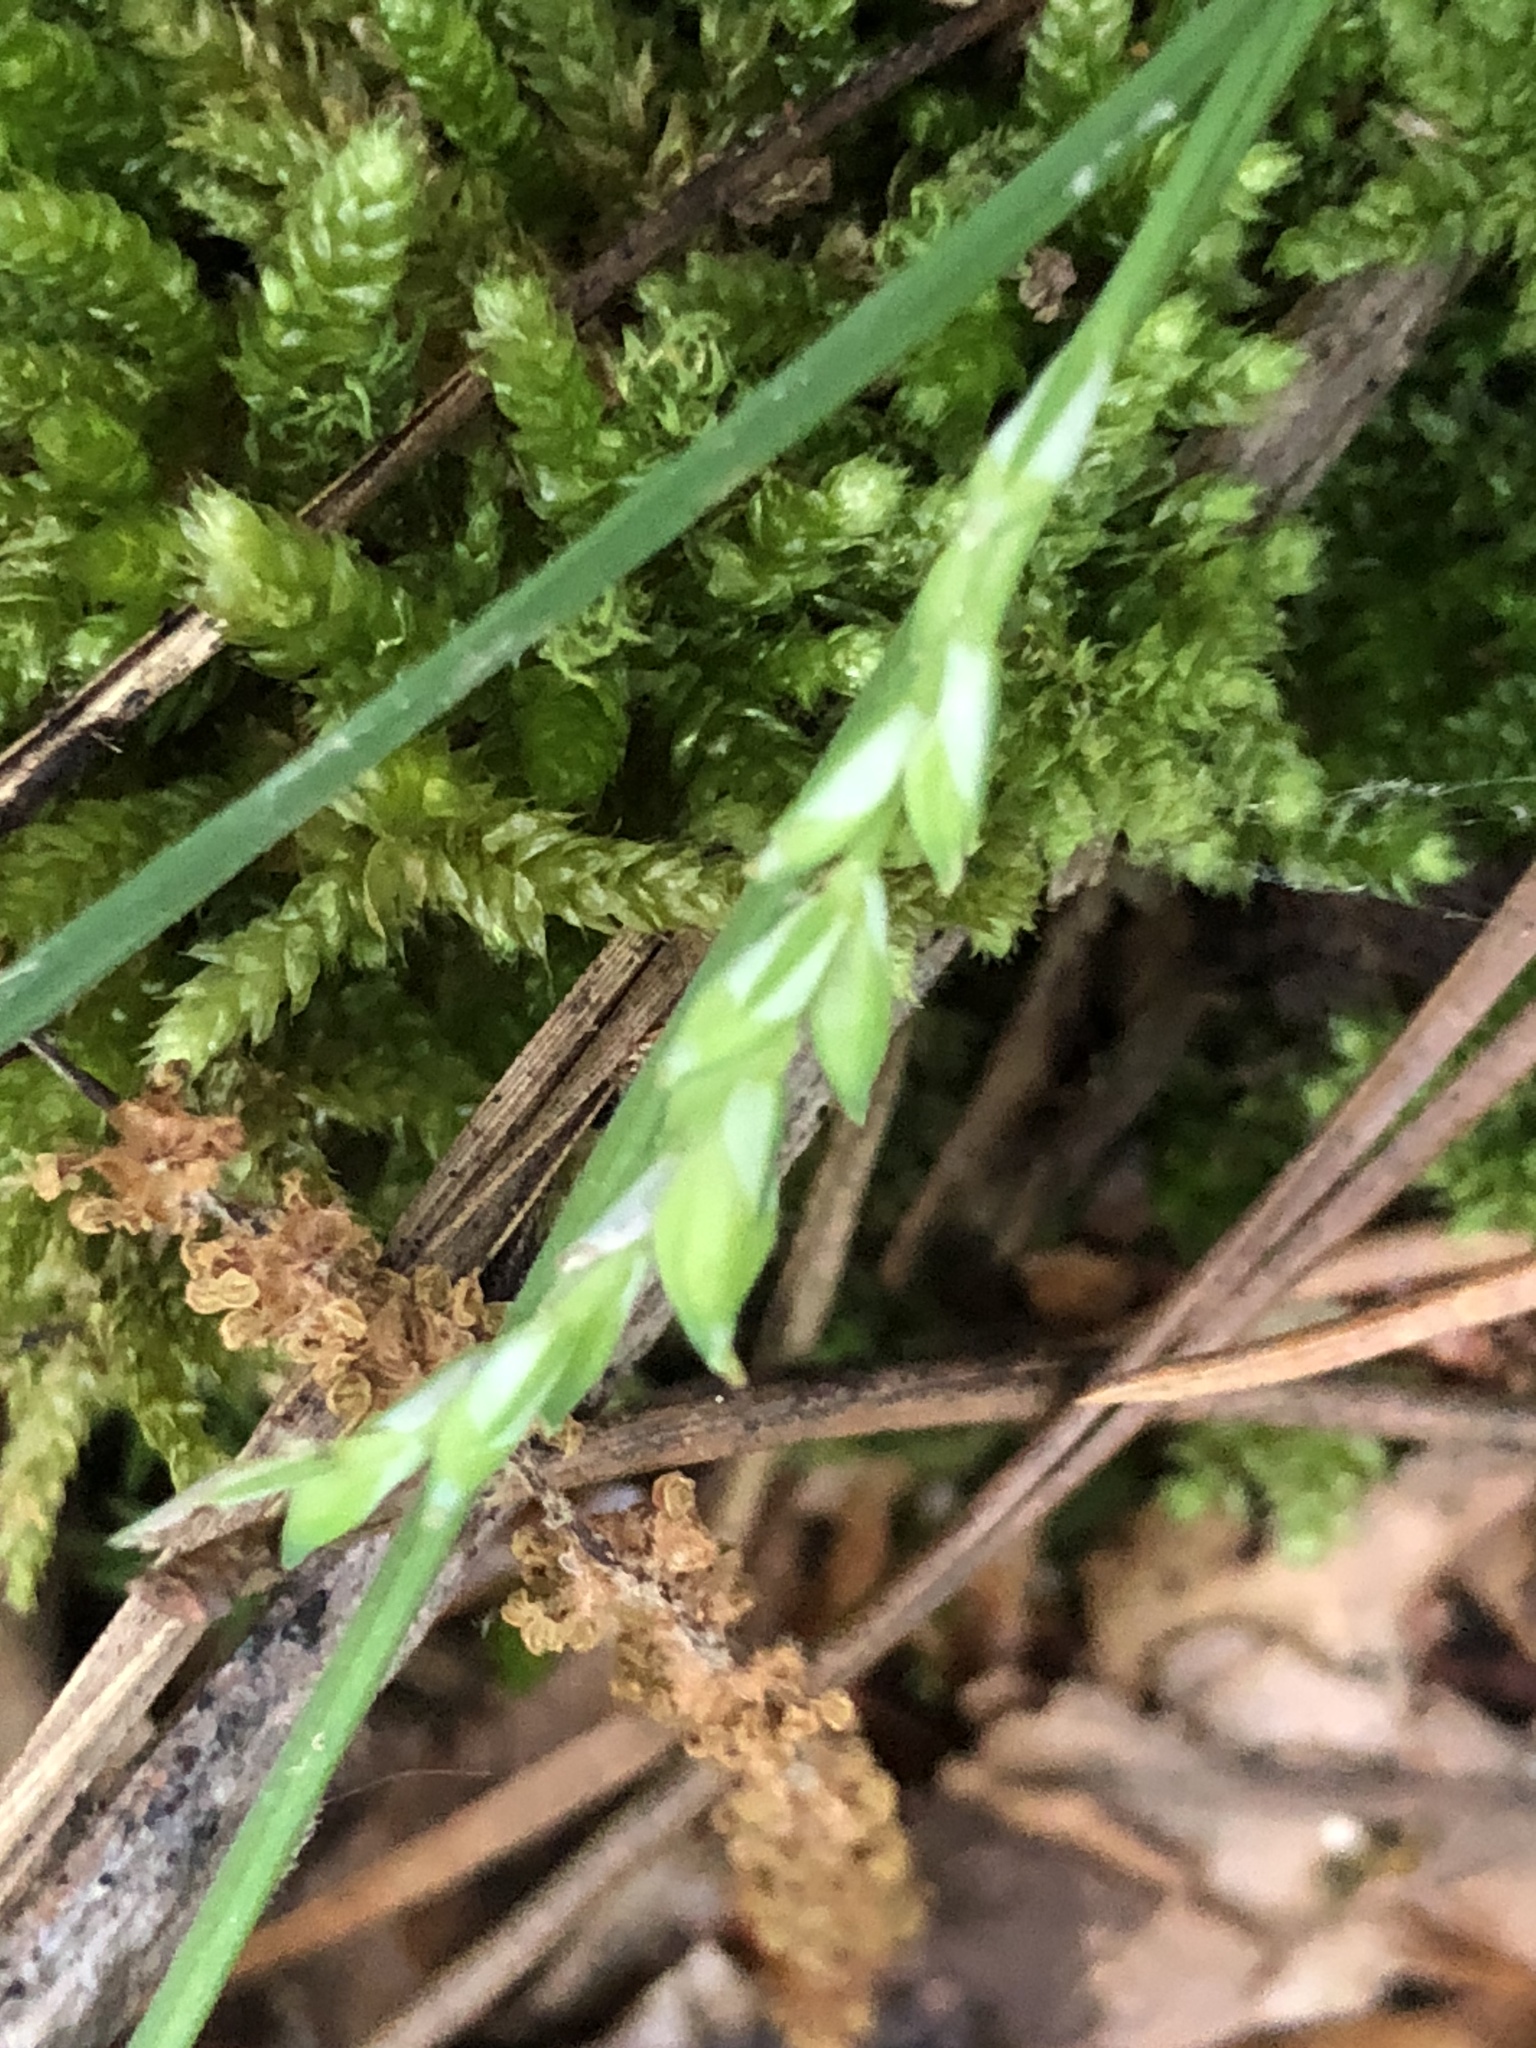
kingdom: Plantae
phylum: Tracheophyta
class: Liliopsida
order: Poales
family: Cyperaceae
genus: Carex
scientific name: Carex ignota
